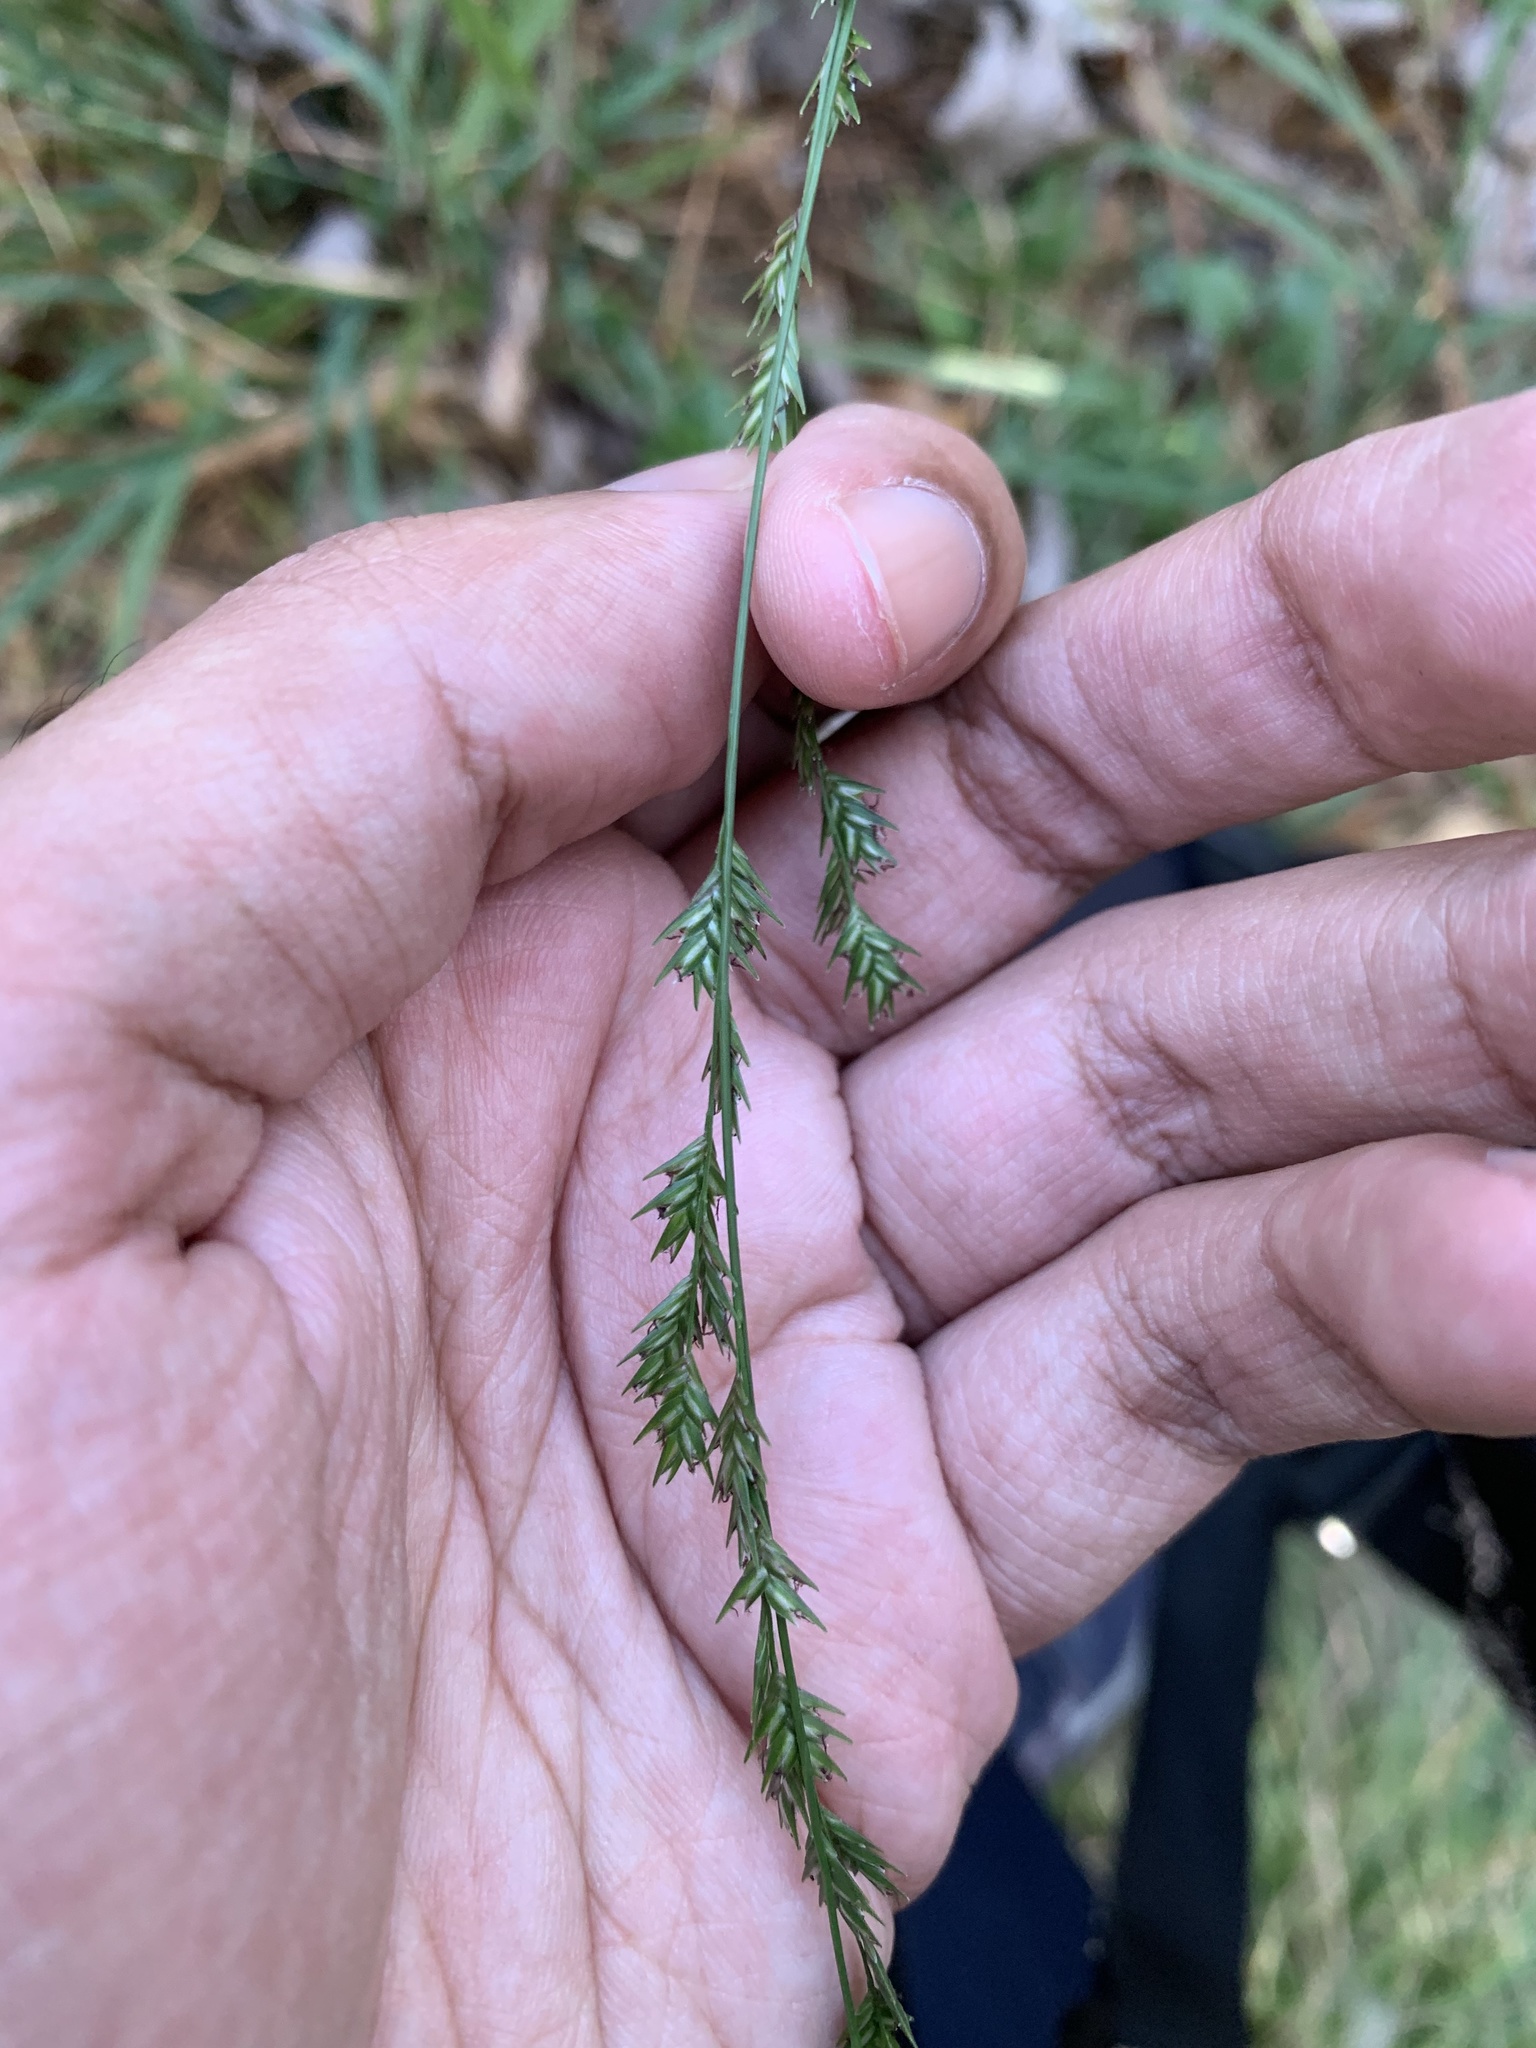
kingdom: Plantae
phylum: Tracheophyta
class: Liliopsida
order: Poales
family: Poaceae
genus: Chasmanthium
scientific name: Chasmanthium laxum
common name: Slender chasmanthium
